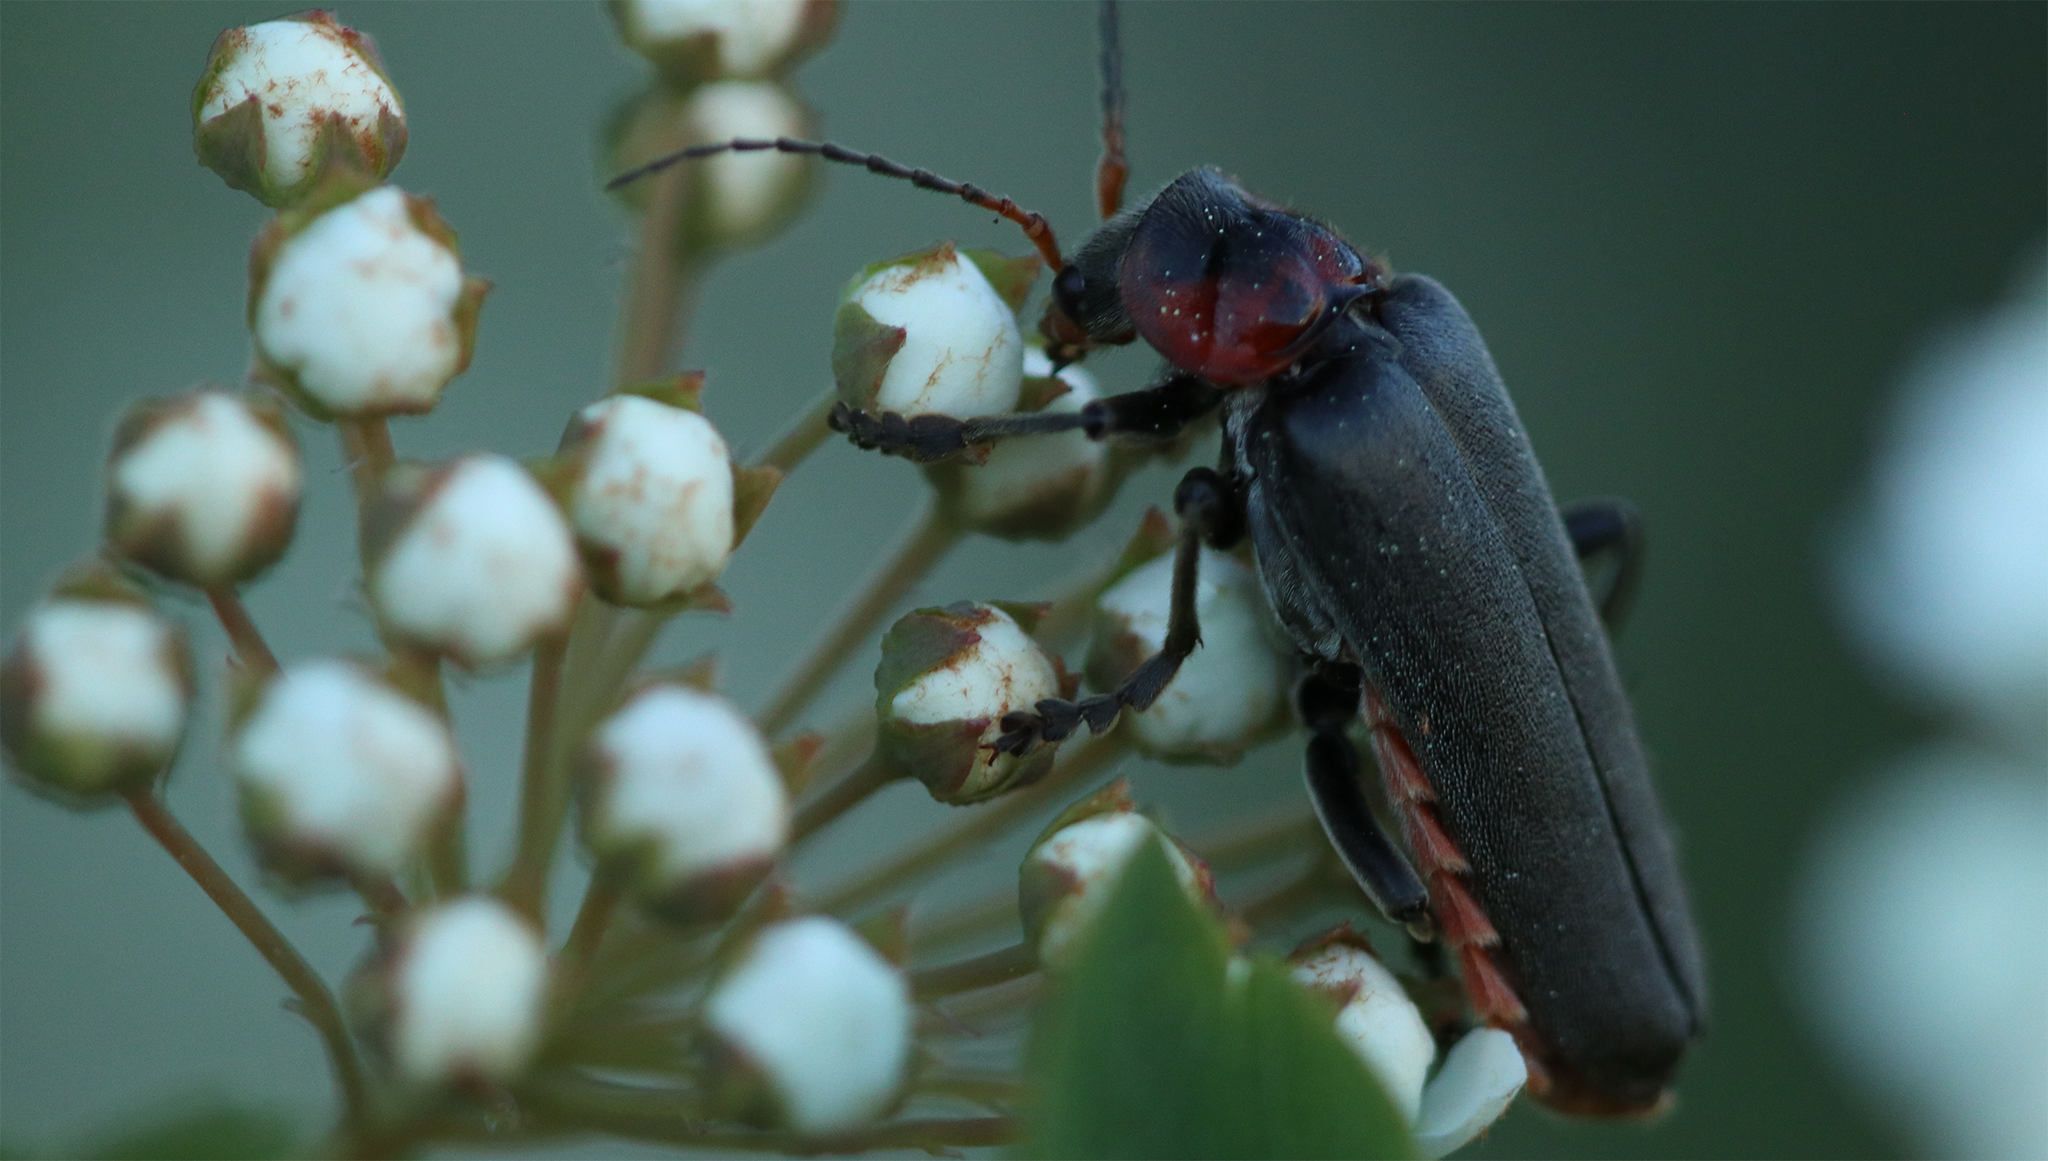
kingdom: Animalia
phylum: Arthropoda
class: Insecta
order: Coleoptera
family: Cantharidae
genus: Cantharis
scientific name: Cantharis fusca
